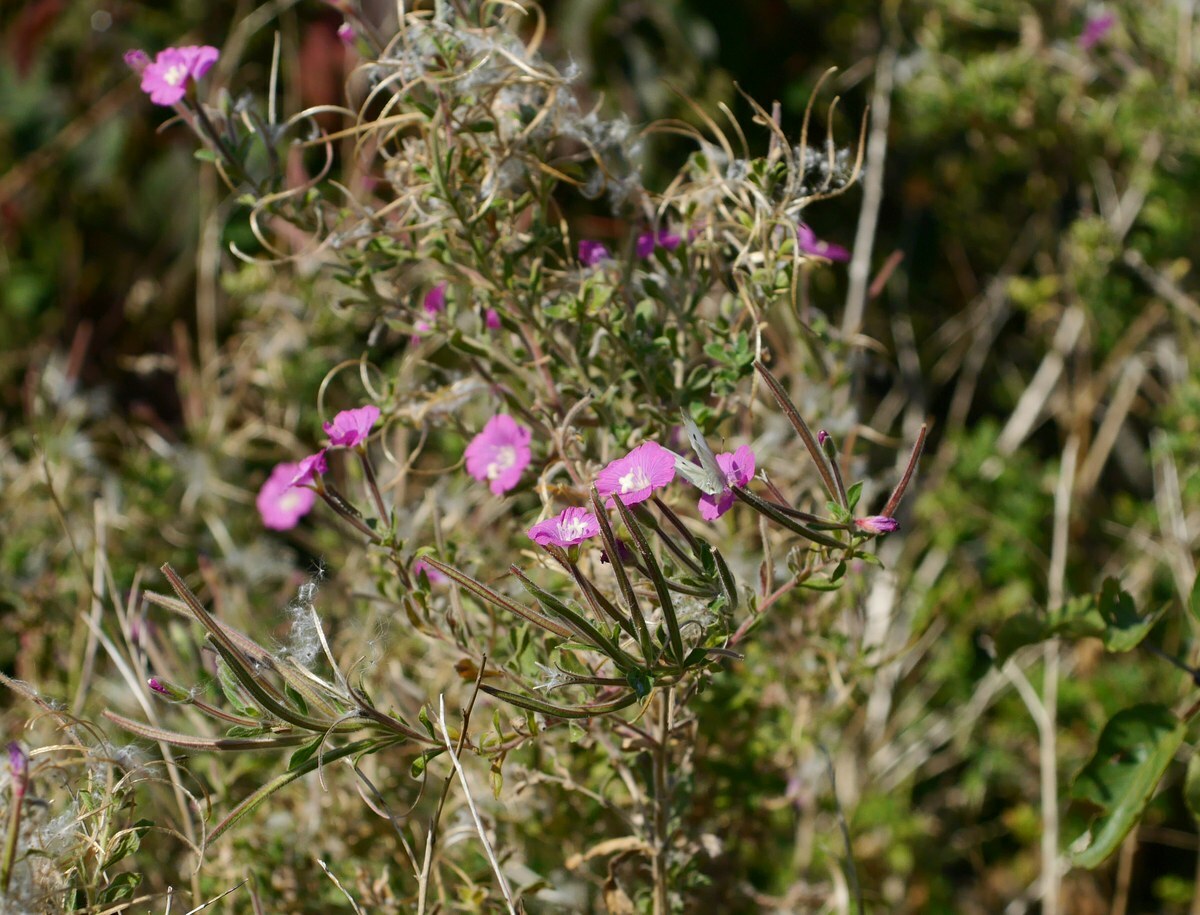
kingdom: Plantae
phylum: Tracheophyta
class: Magnoliopsida
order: Myrtales
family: Onagraceae
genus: Epilobium
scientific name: Epilobium hirsutum
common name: Great willowherb
